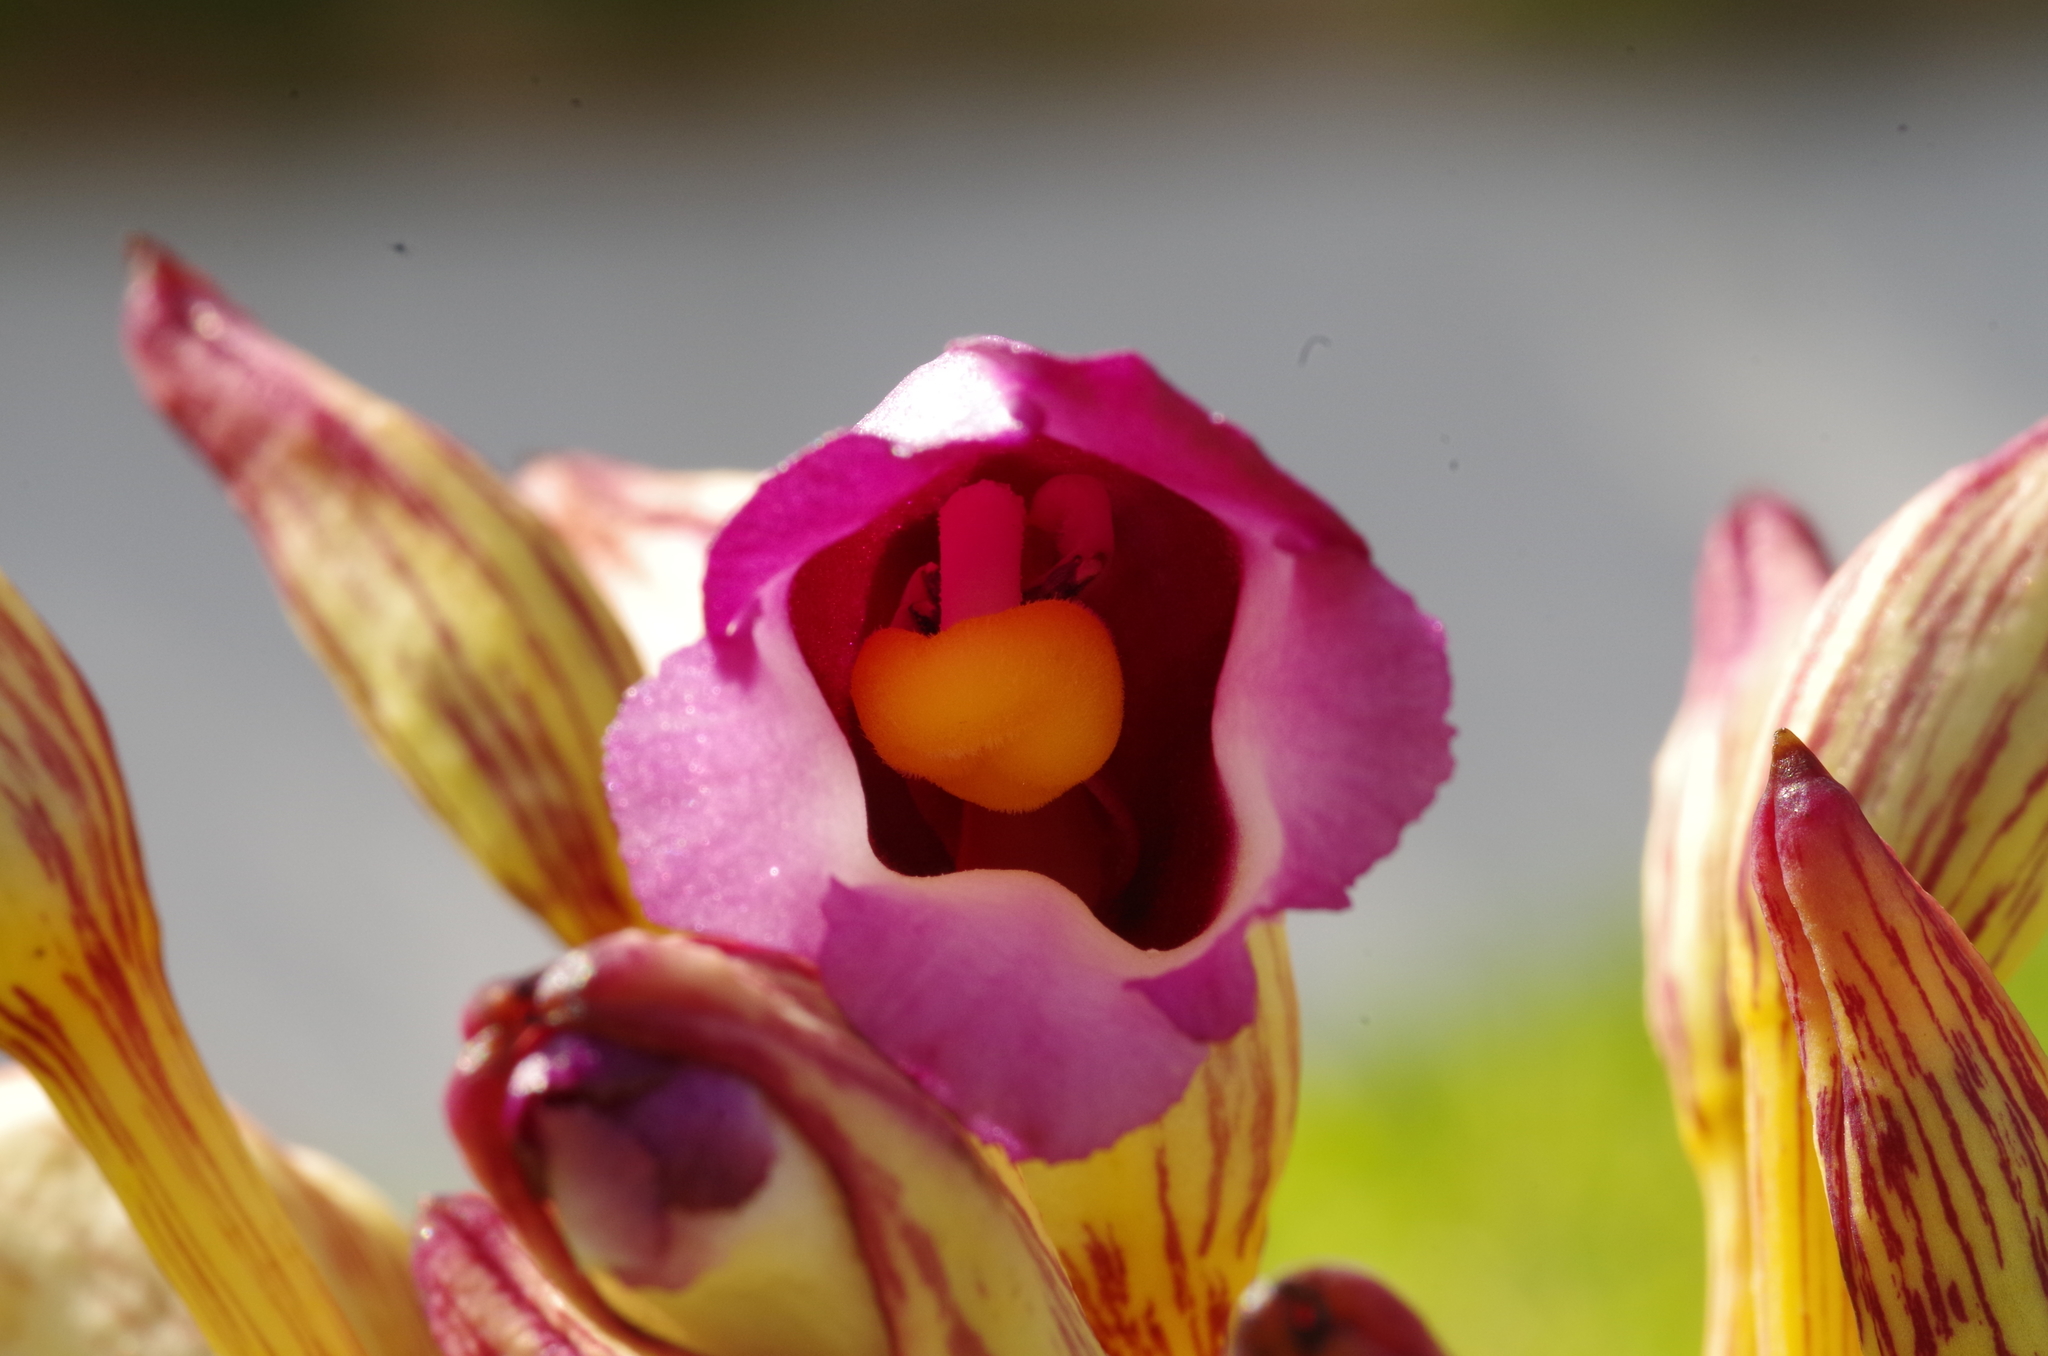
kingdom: Plantae
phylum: Tracheophyta
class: Magnoliopsida
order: Lamiales
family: Orobanchaceae
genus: Aeginetia
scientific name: Aeginetia indica
